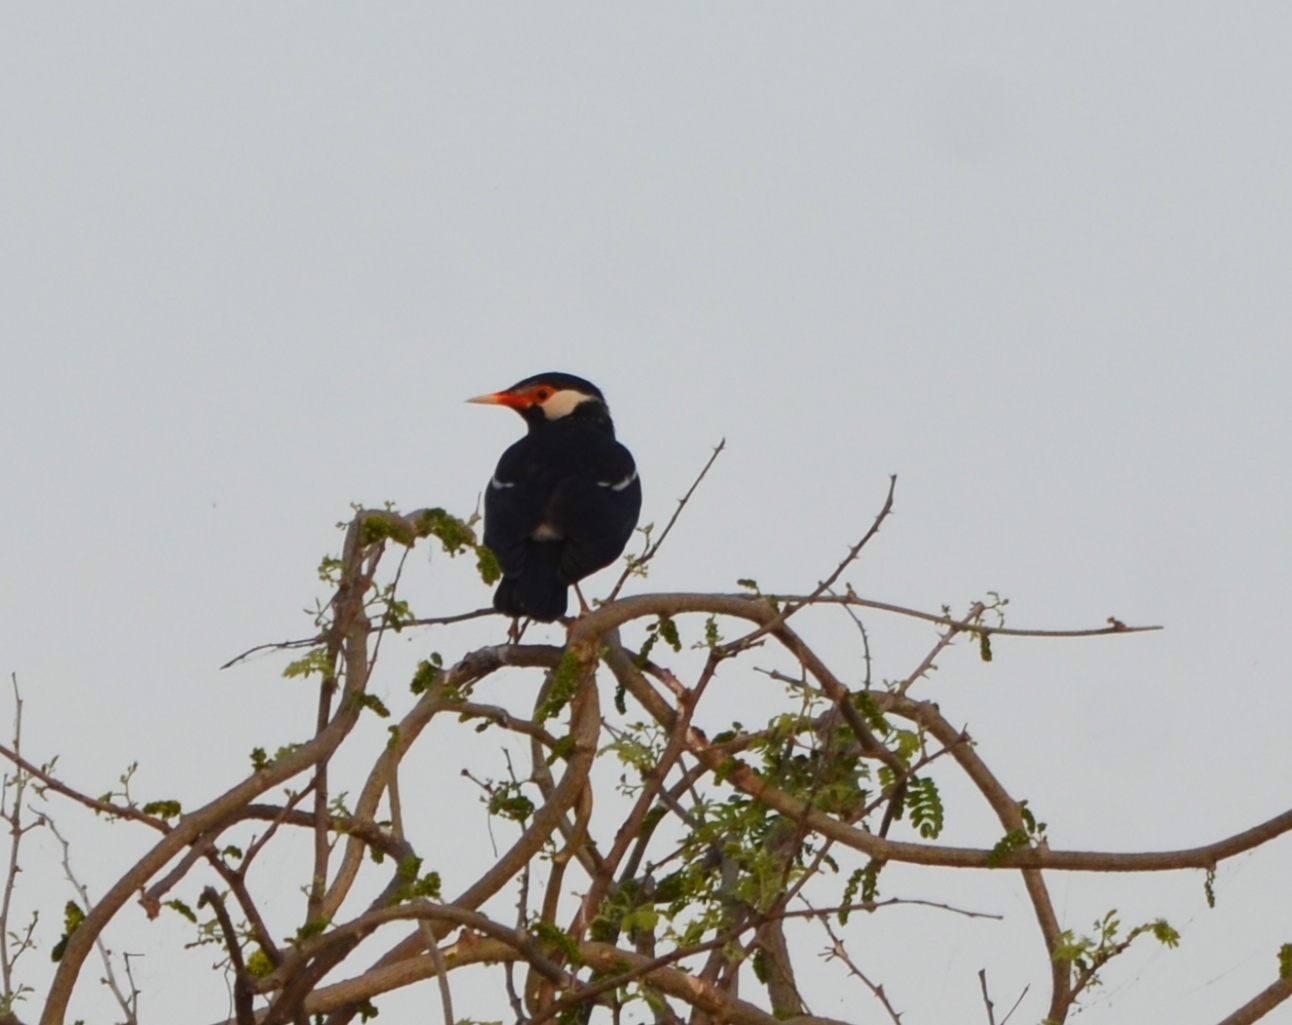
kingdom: Animalia
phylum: Chordata
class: Aves
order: Passeriformes
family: Sturnidae
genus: Gracupica
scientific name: Gracupica contra
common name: Pied myna
